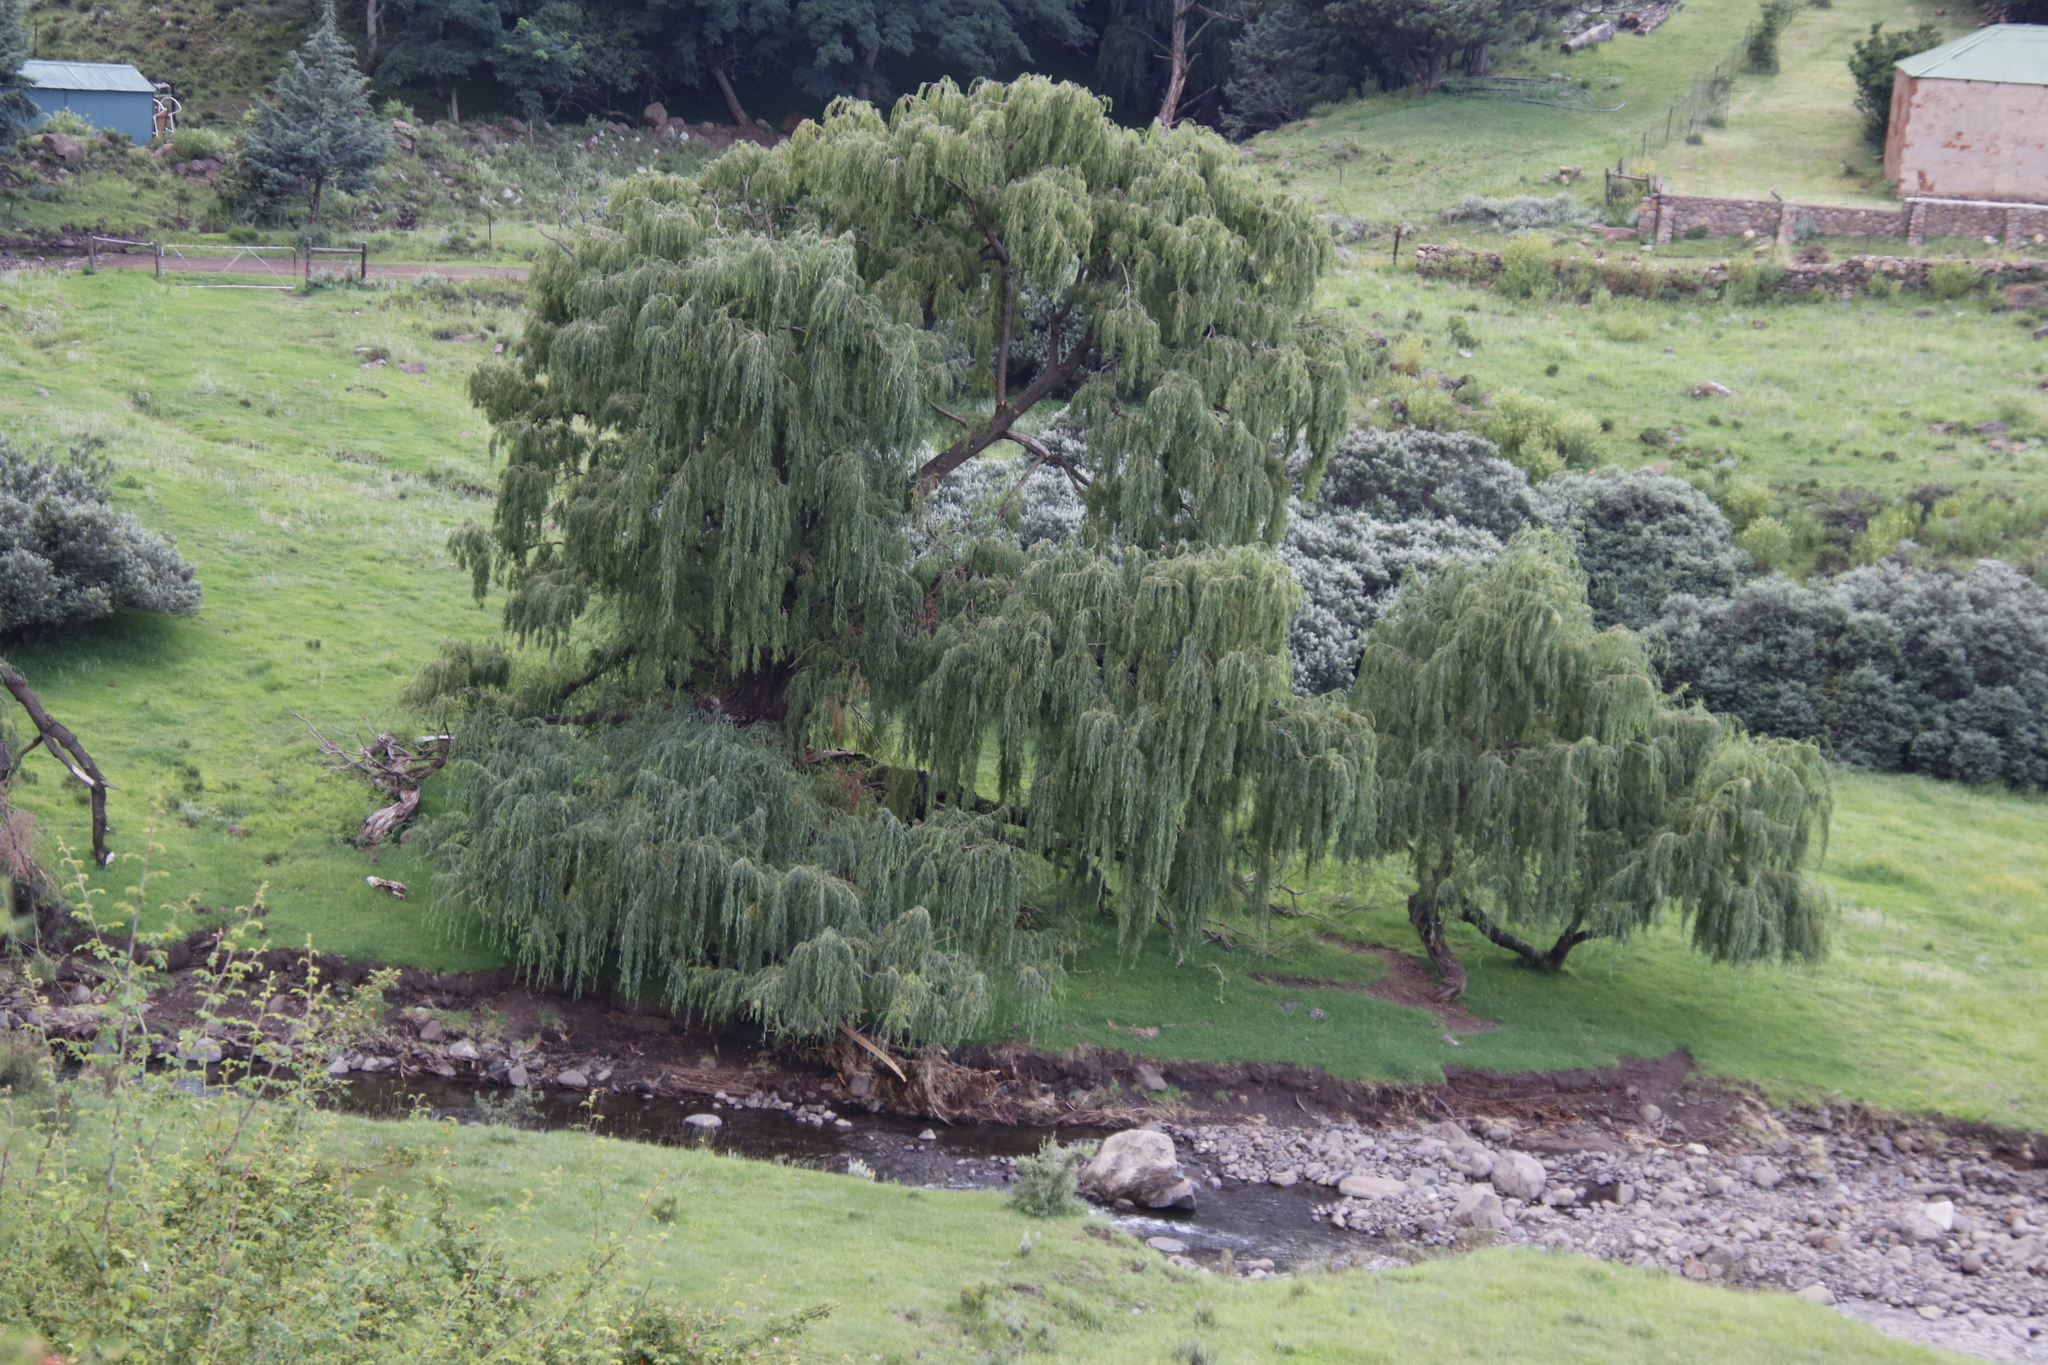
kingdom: Plantae
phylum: Tracheophyta
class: Magnoliopsida
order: Malpighiales
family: Salicaceae
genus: Salix
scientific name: Salix babylonica
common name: Weeping willow
